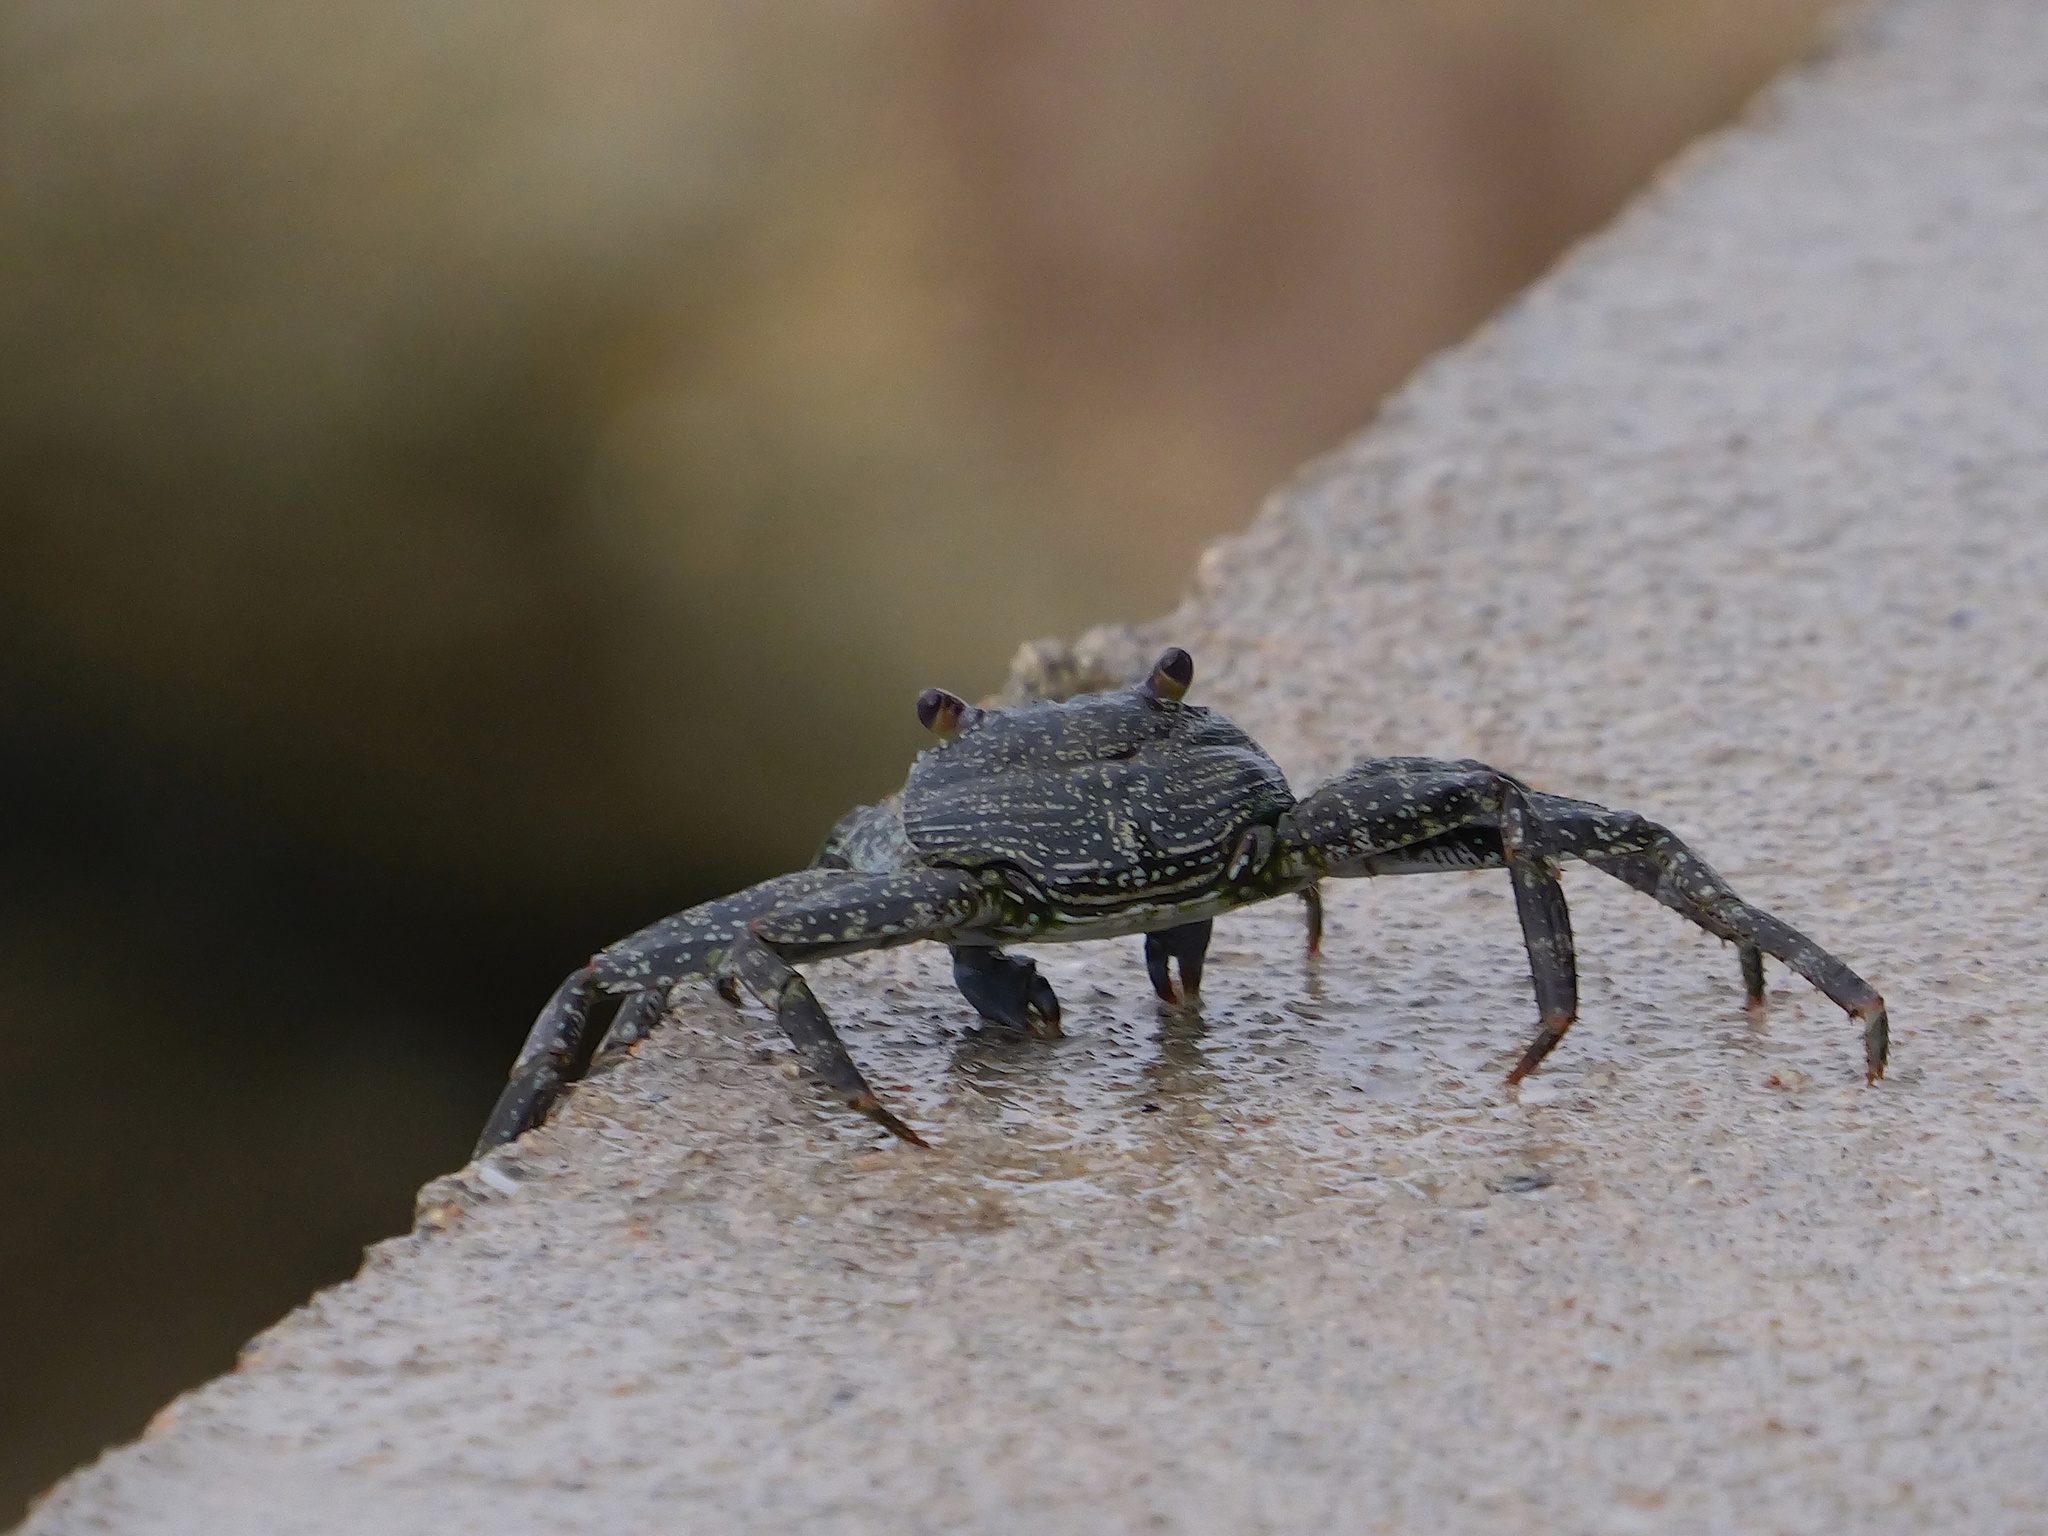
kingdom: Animalia
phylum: Arthropoda
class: Malacostraca
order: Decapoda
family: Grapsidae
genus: Grapsus
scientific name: Grapsus adscensionis
